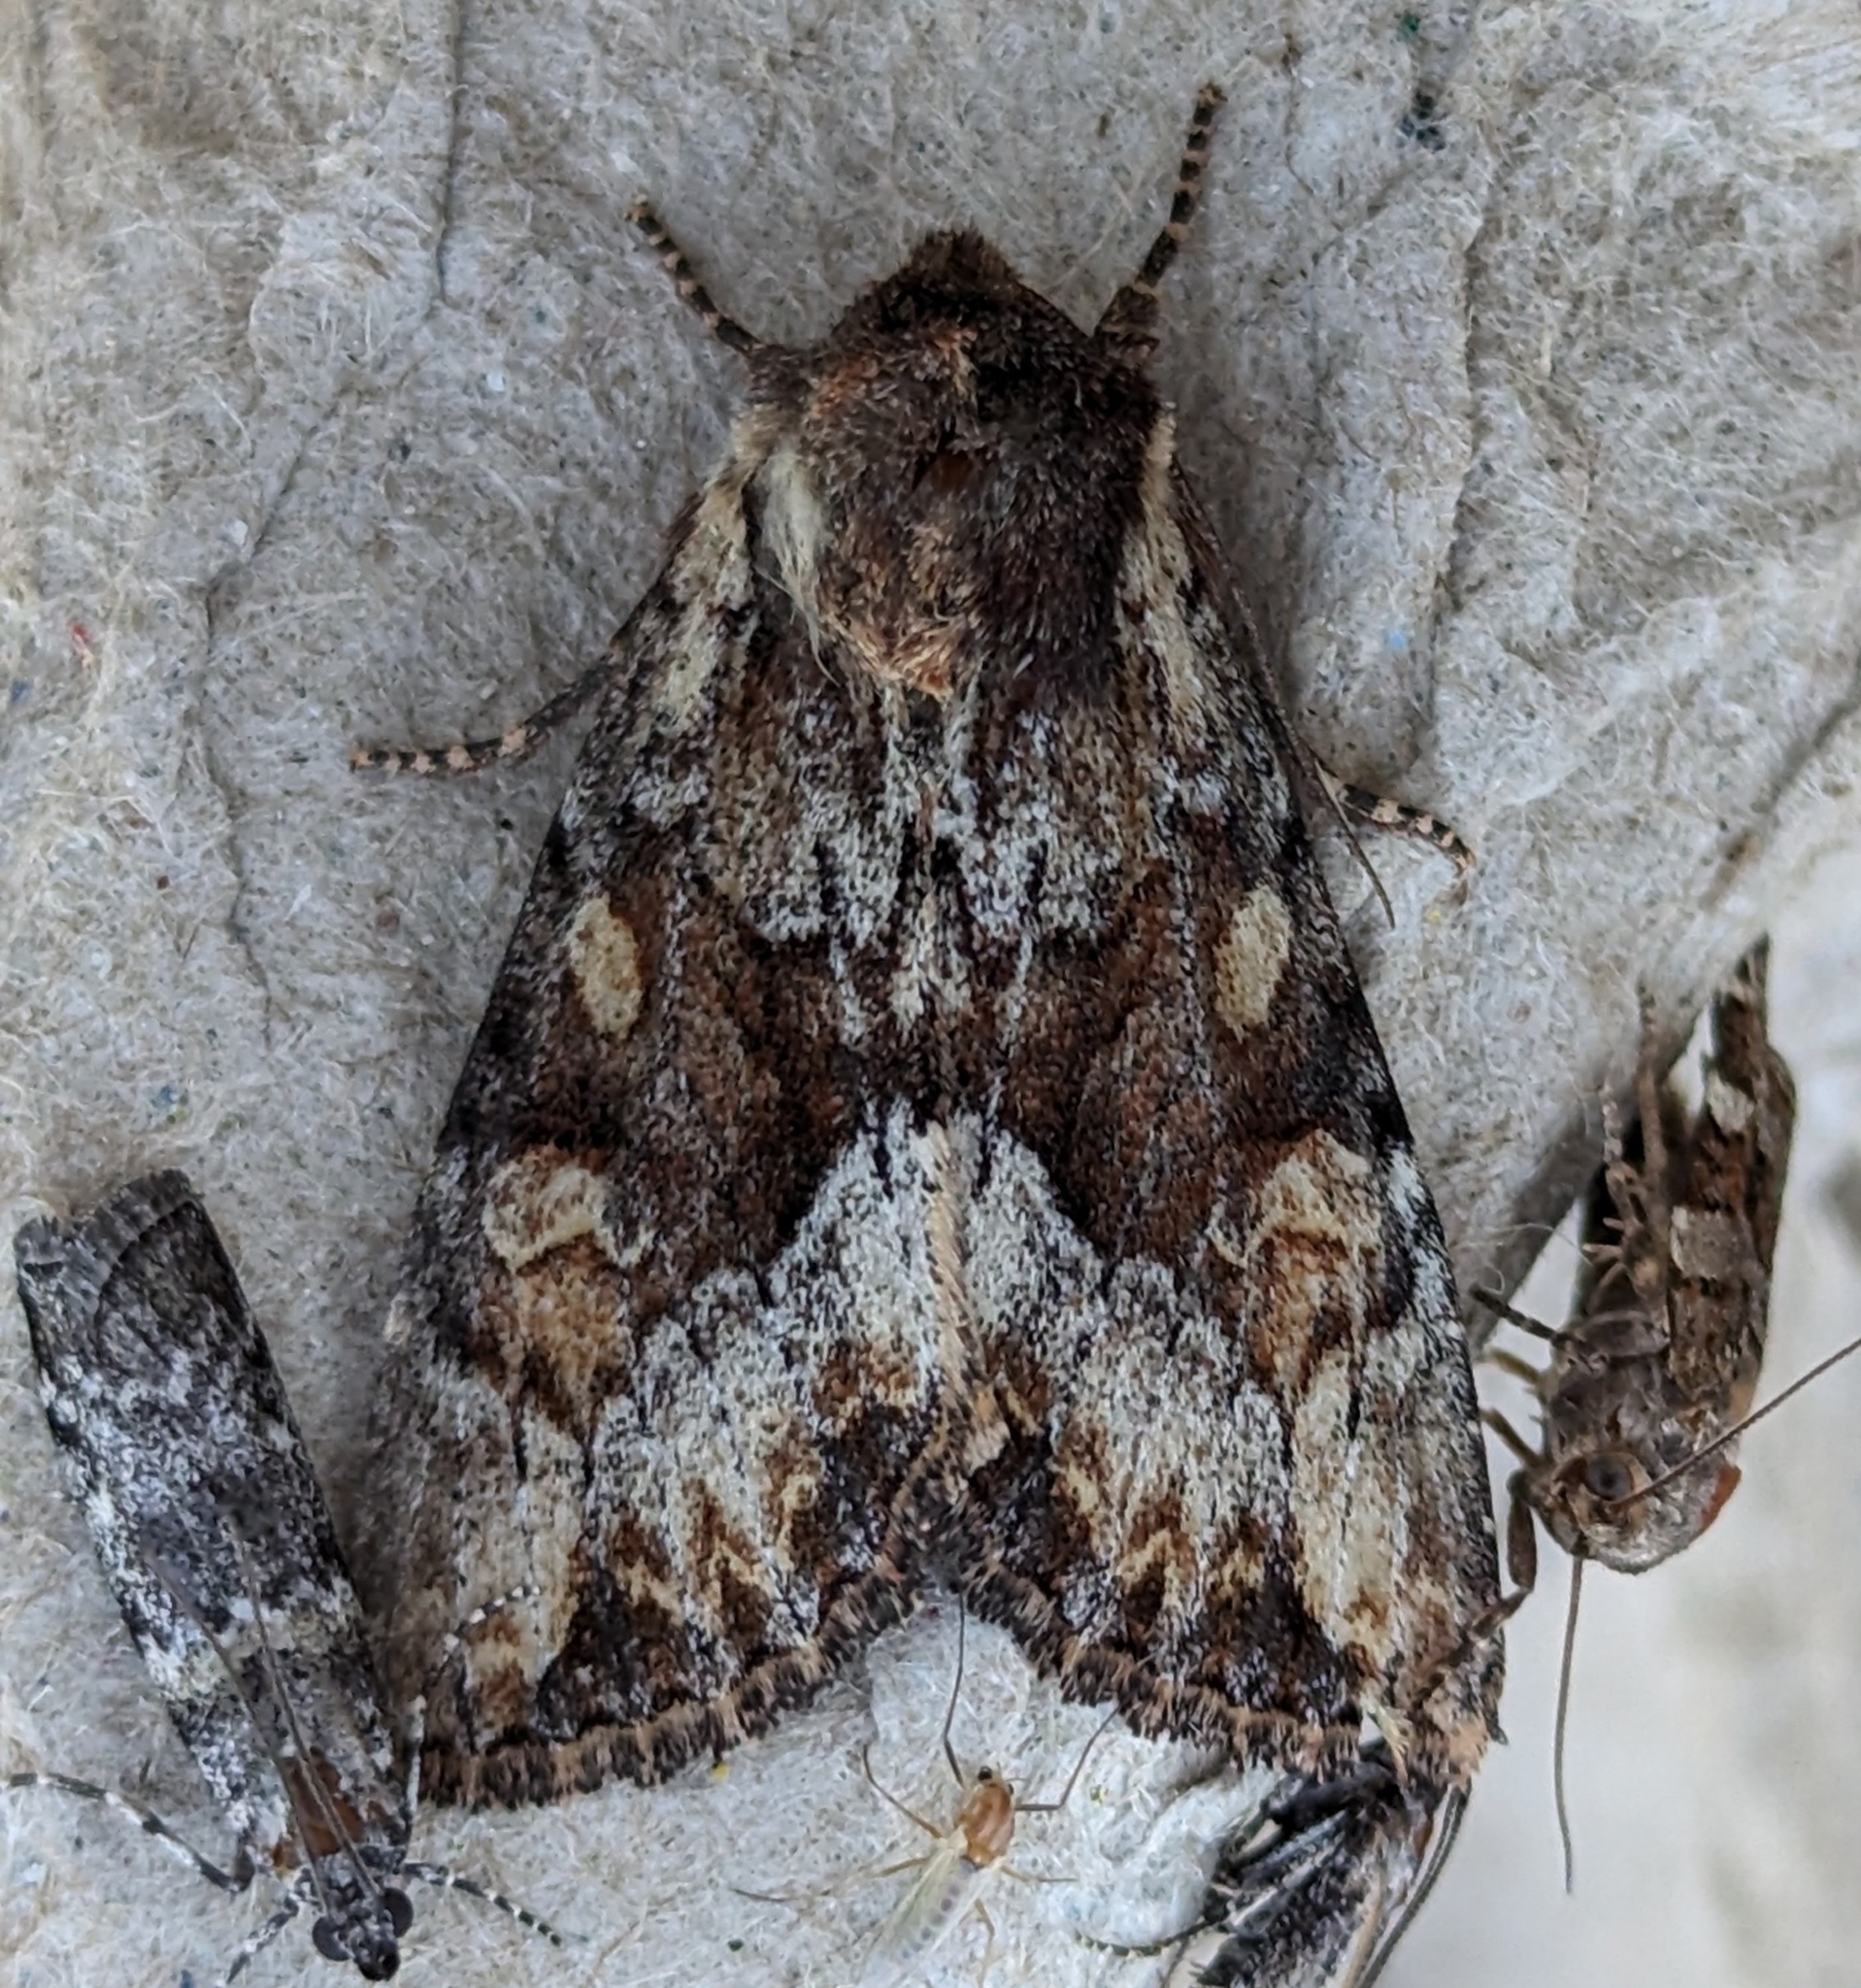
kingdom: Animalia
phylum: Arthropoda
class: Insecta
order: Lepidoptera
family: Noctuidae
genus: Apamea
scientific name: Apamea sora
